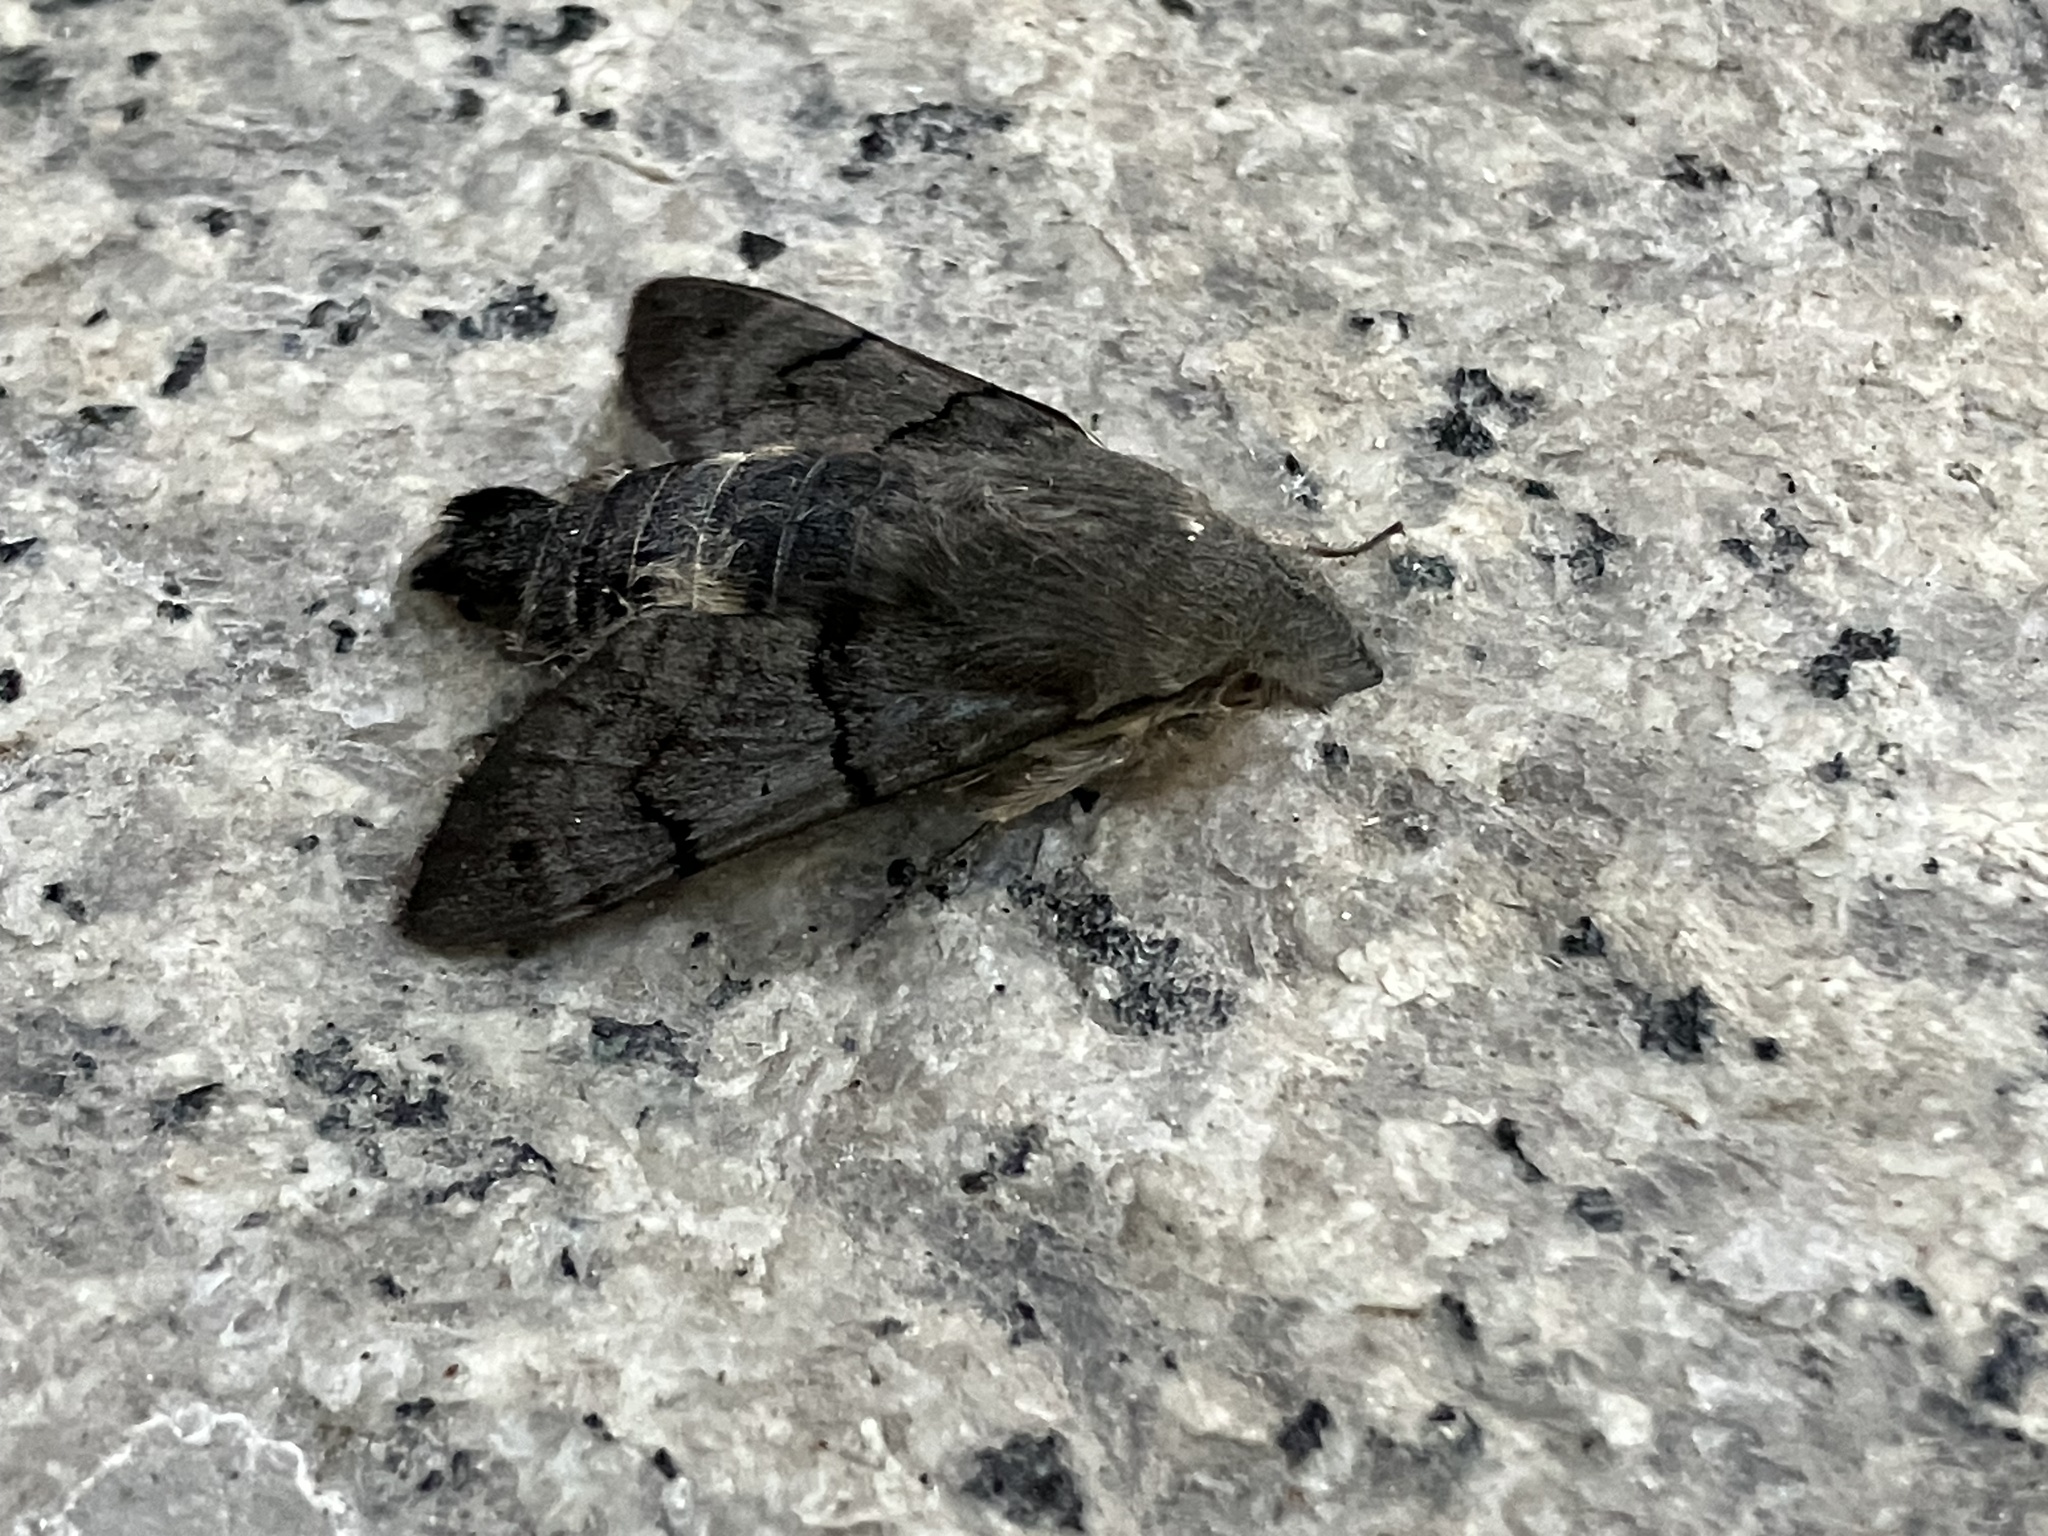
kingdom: Animalia
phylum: Arthropoda
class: Insecta
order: Lepidoptera
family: Sphingidae
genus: Macroglossum
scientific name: Macroglossum stellatarum
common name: Humming-bird hawk-moth
